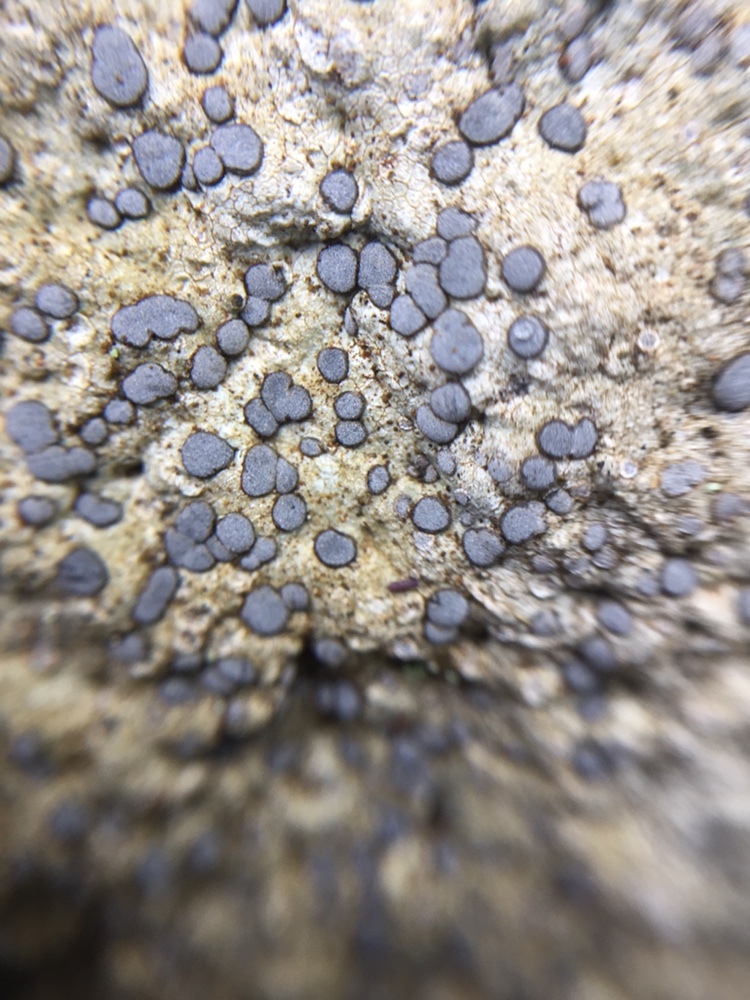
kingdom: Fungi
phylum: Ascomycota
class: Lecanoromycetes
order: Lecideales
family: Lecideaceae
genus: Porpidia
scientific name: Porpidia albocaerulescens
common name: Smokey-eyed boulder lichen
